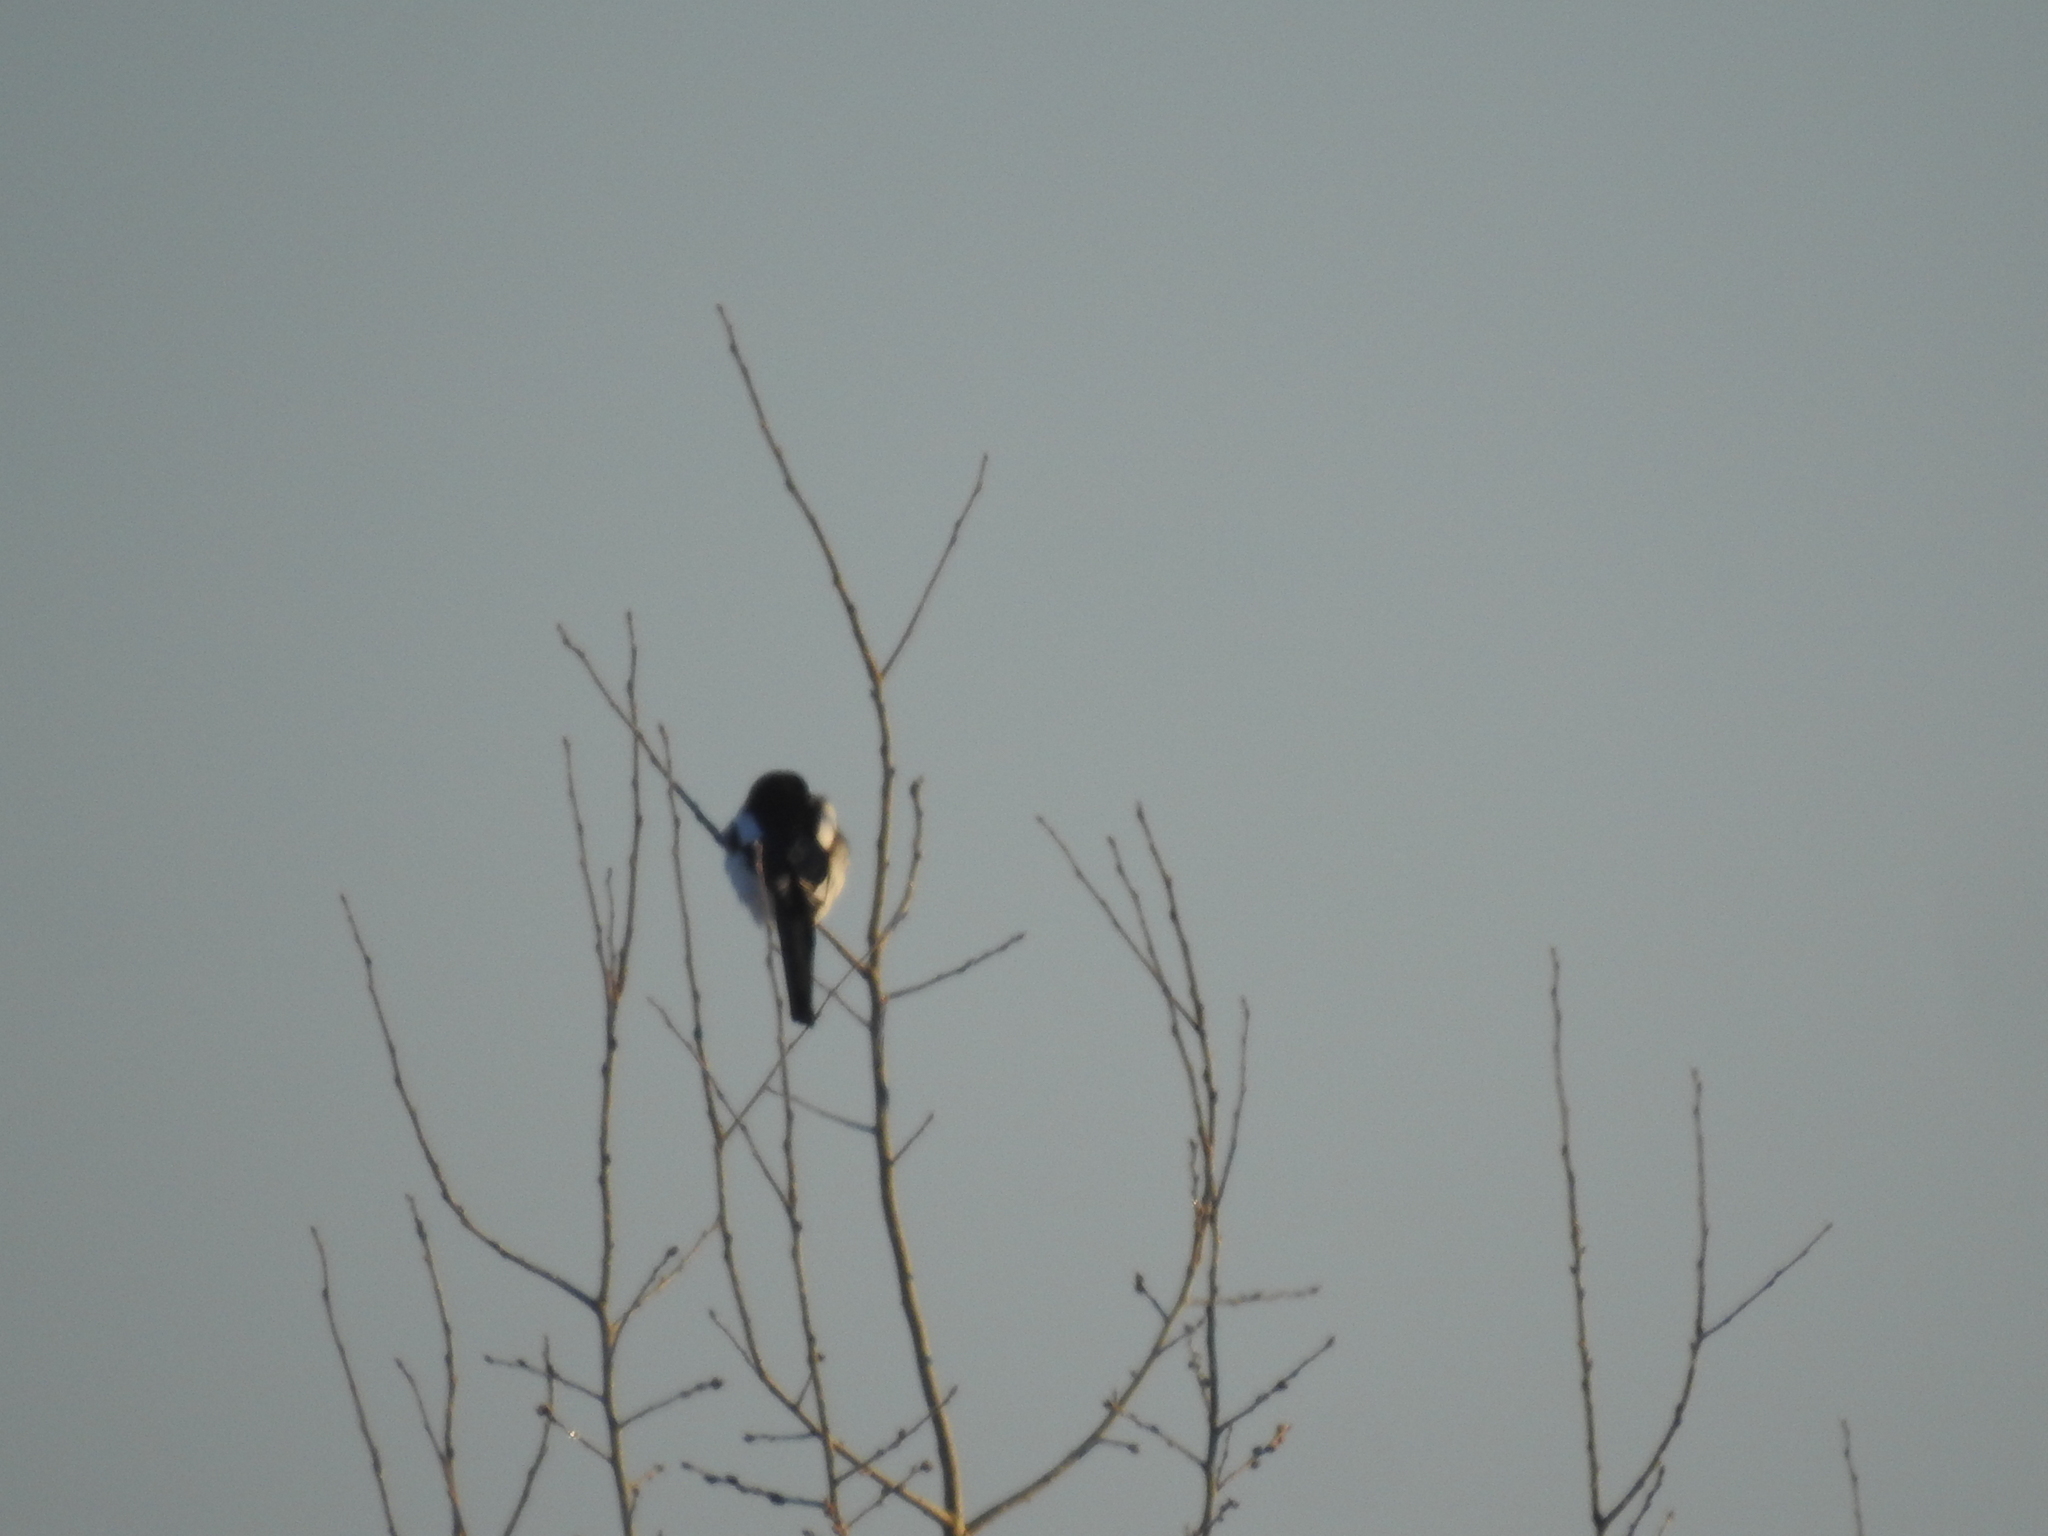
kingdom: Animalia
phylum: Chordata
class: Aves
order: Passeriformes
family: Corvidae
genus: Pica
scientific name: Pica pica
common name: Eurasian magpie
